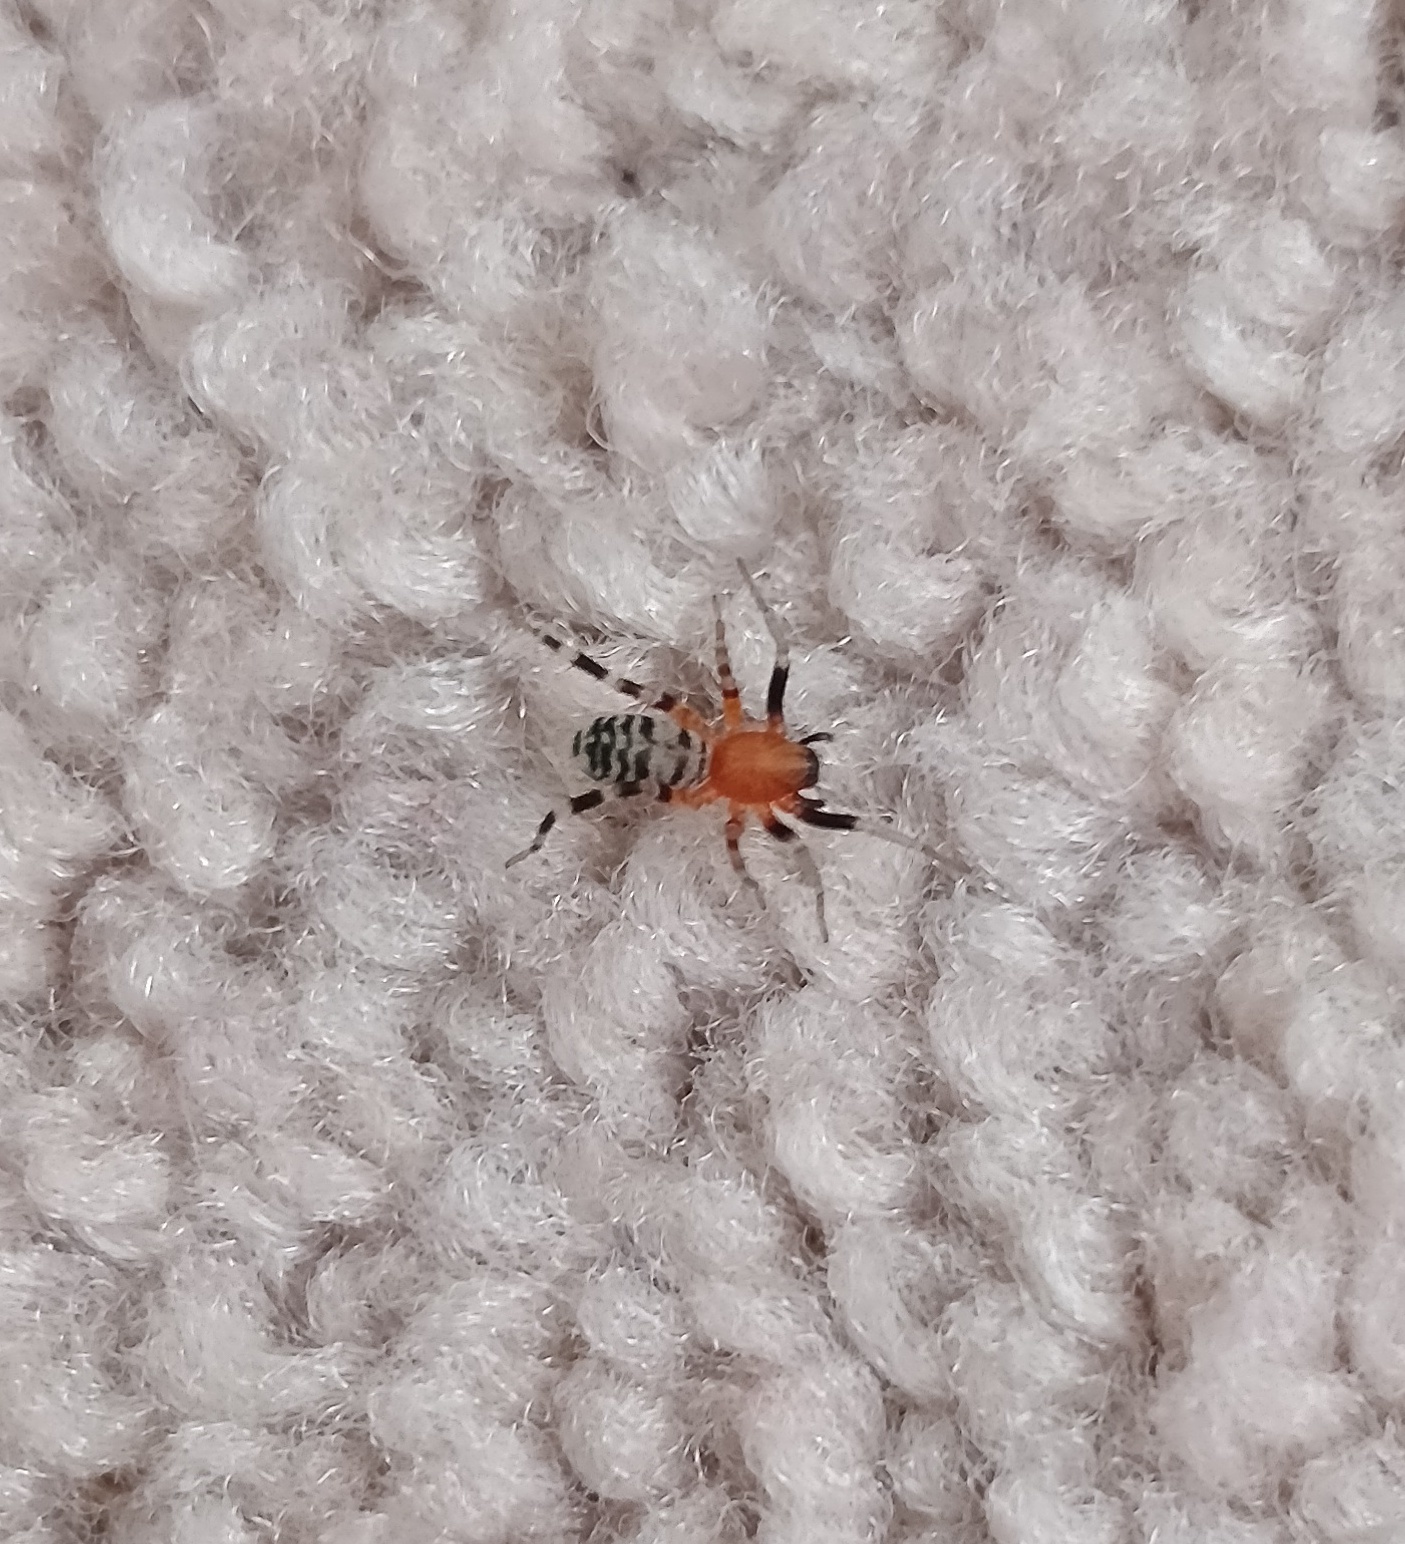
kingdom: Animalia
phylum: Arthropoda
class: Arachnida
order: Araneae
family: Corinnidae
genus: Castianeira
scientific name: Castianeira amoena
